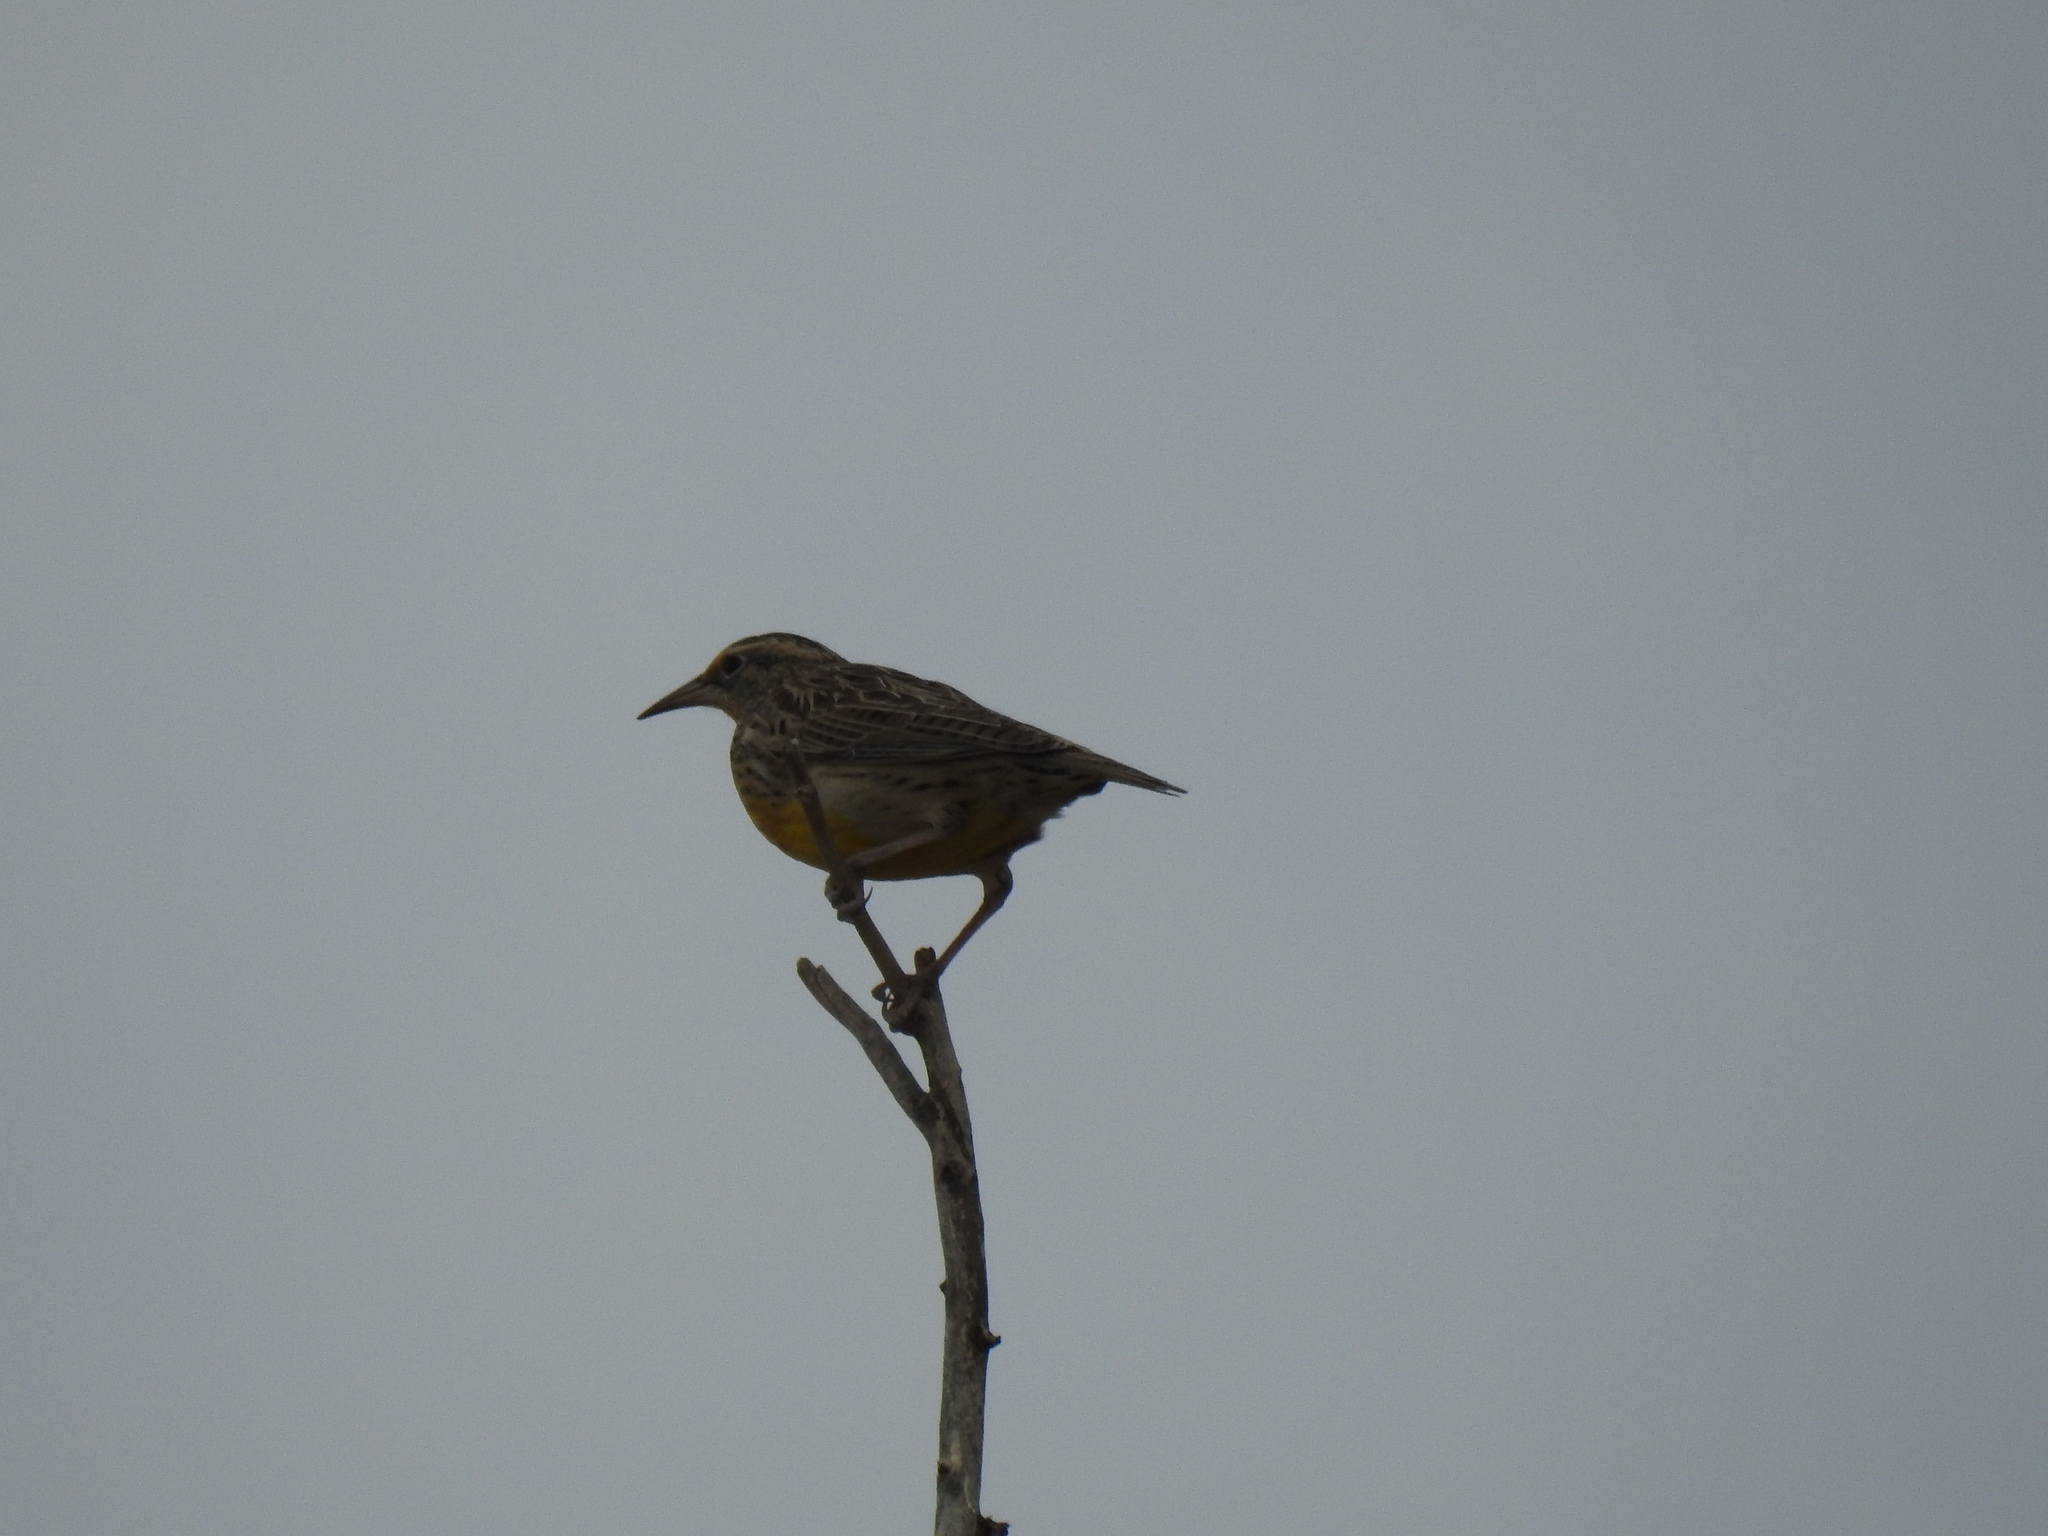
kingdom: Animalia
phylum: Chordata
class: Aves
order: Passeriformes
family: Icteridae
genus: Sturnella
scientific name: Sturnella neglecta
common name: Western meadowlark
